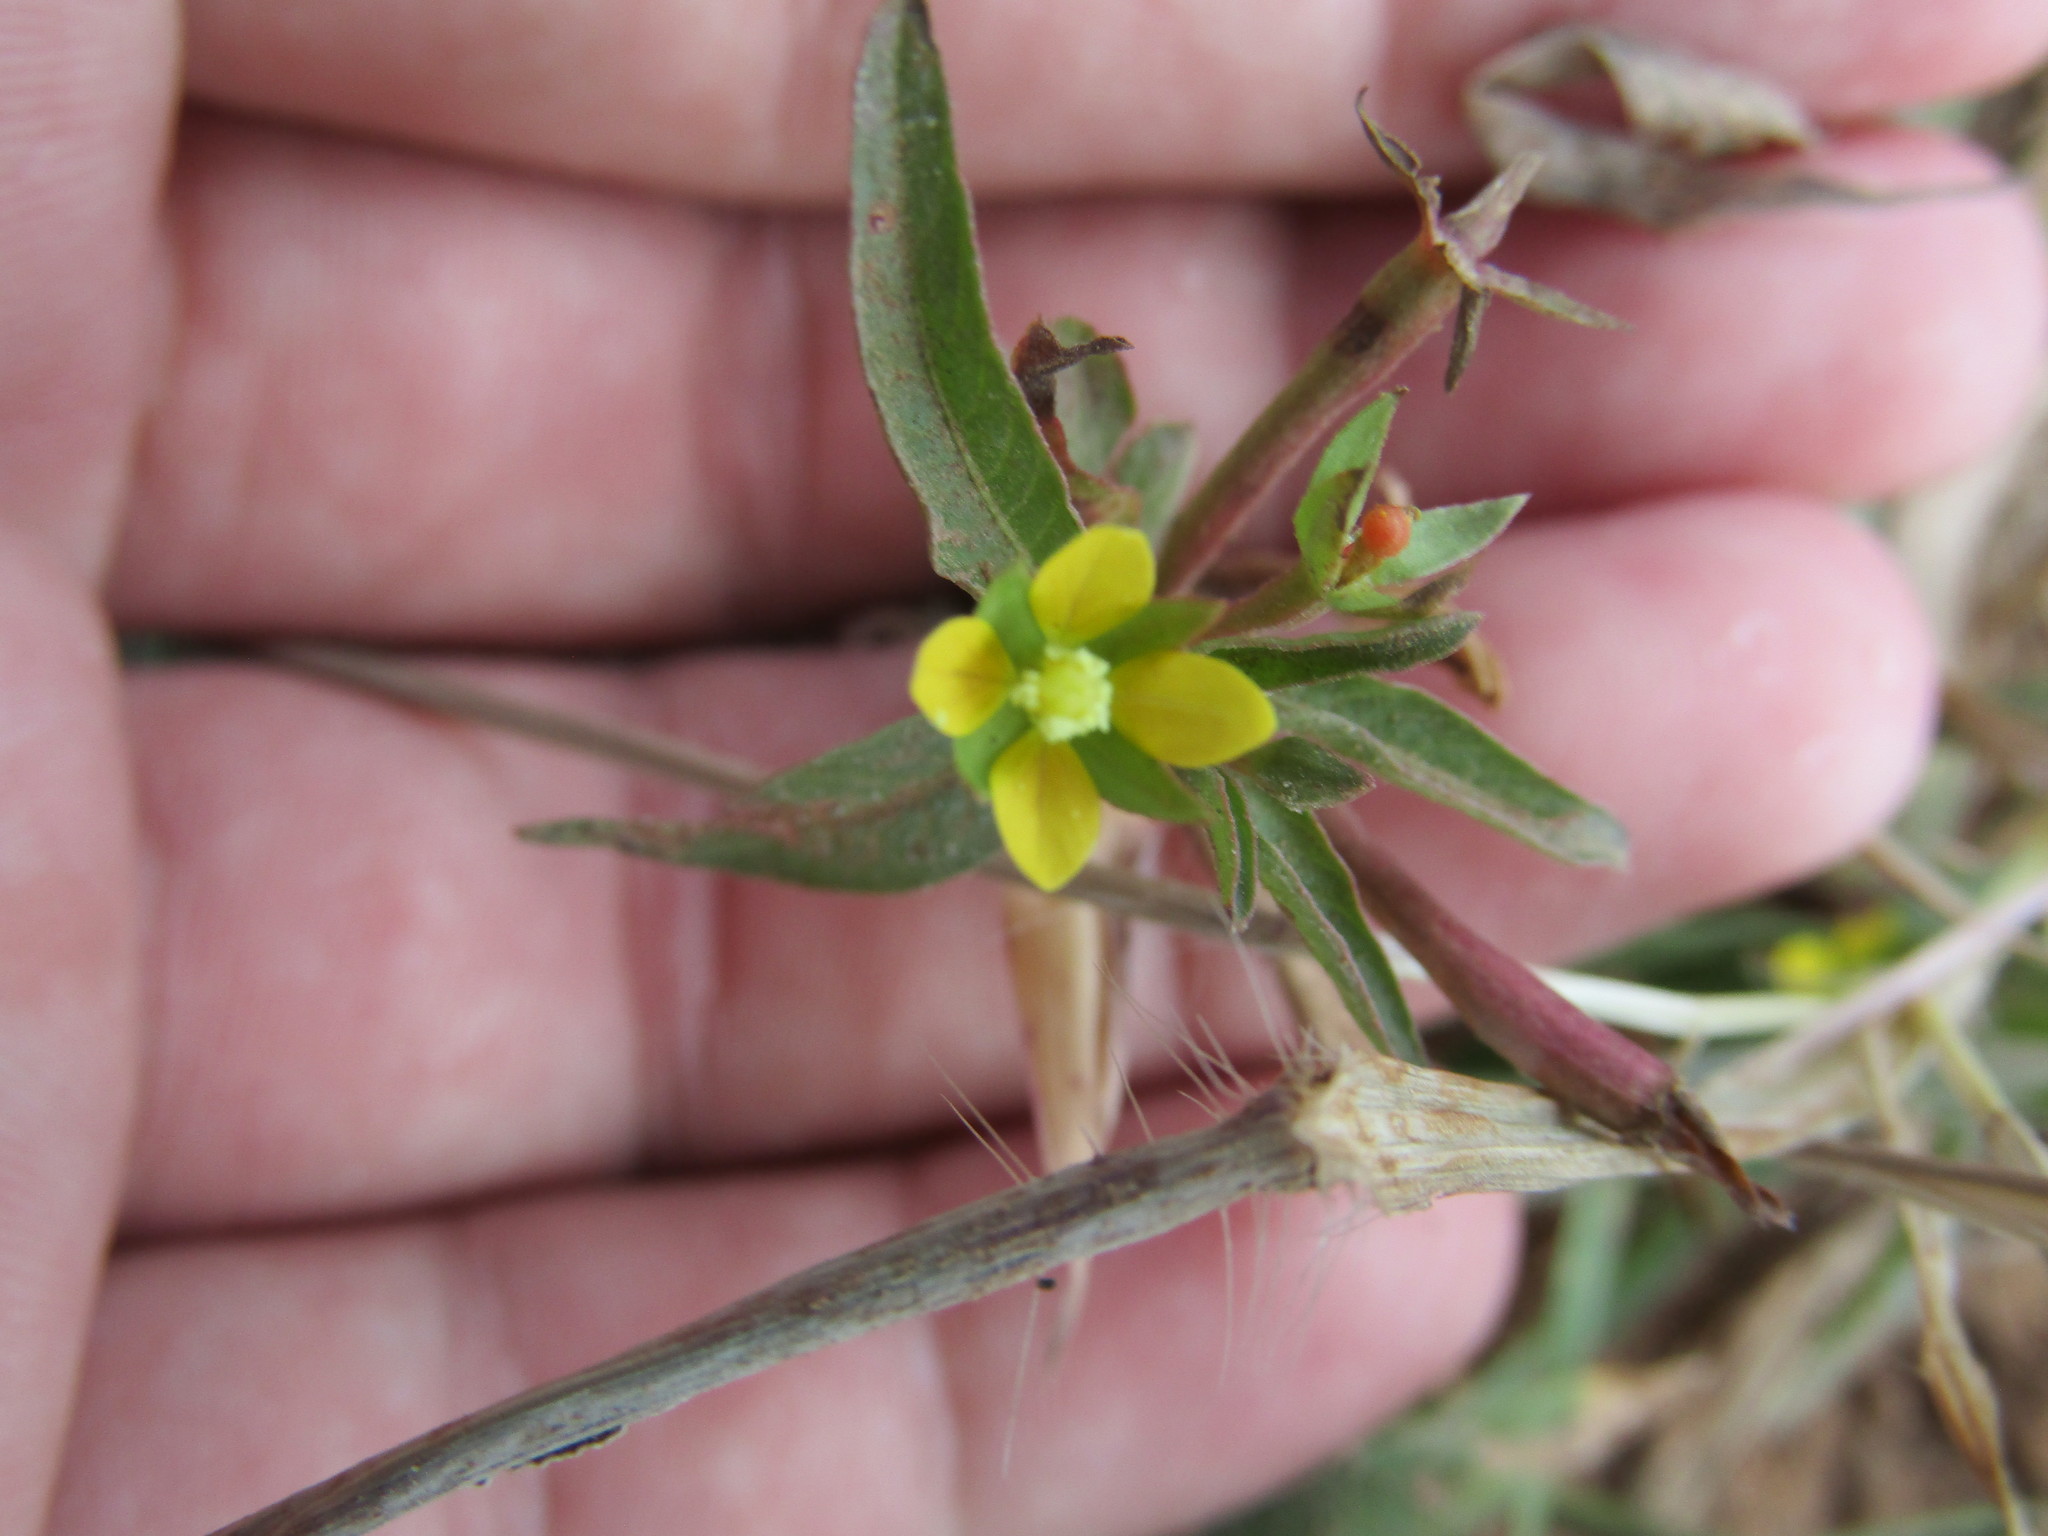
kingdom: Plantae
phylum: Tracheophyta
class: Magnoliopsida
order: Myrtales
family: Onagraceae
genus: Ludwigia
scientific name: Ludwigia hyssopifolia
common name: Linear leaf water primrose
